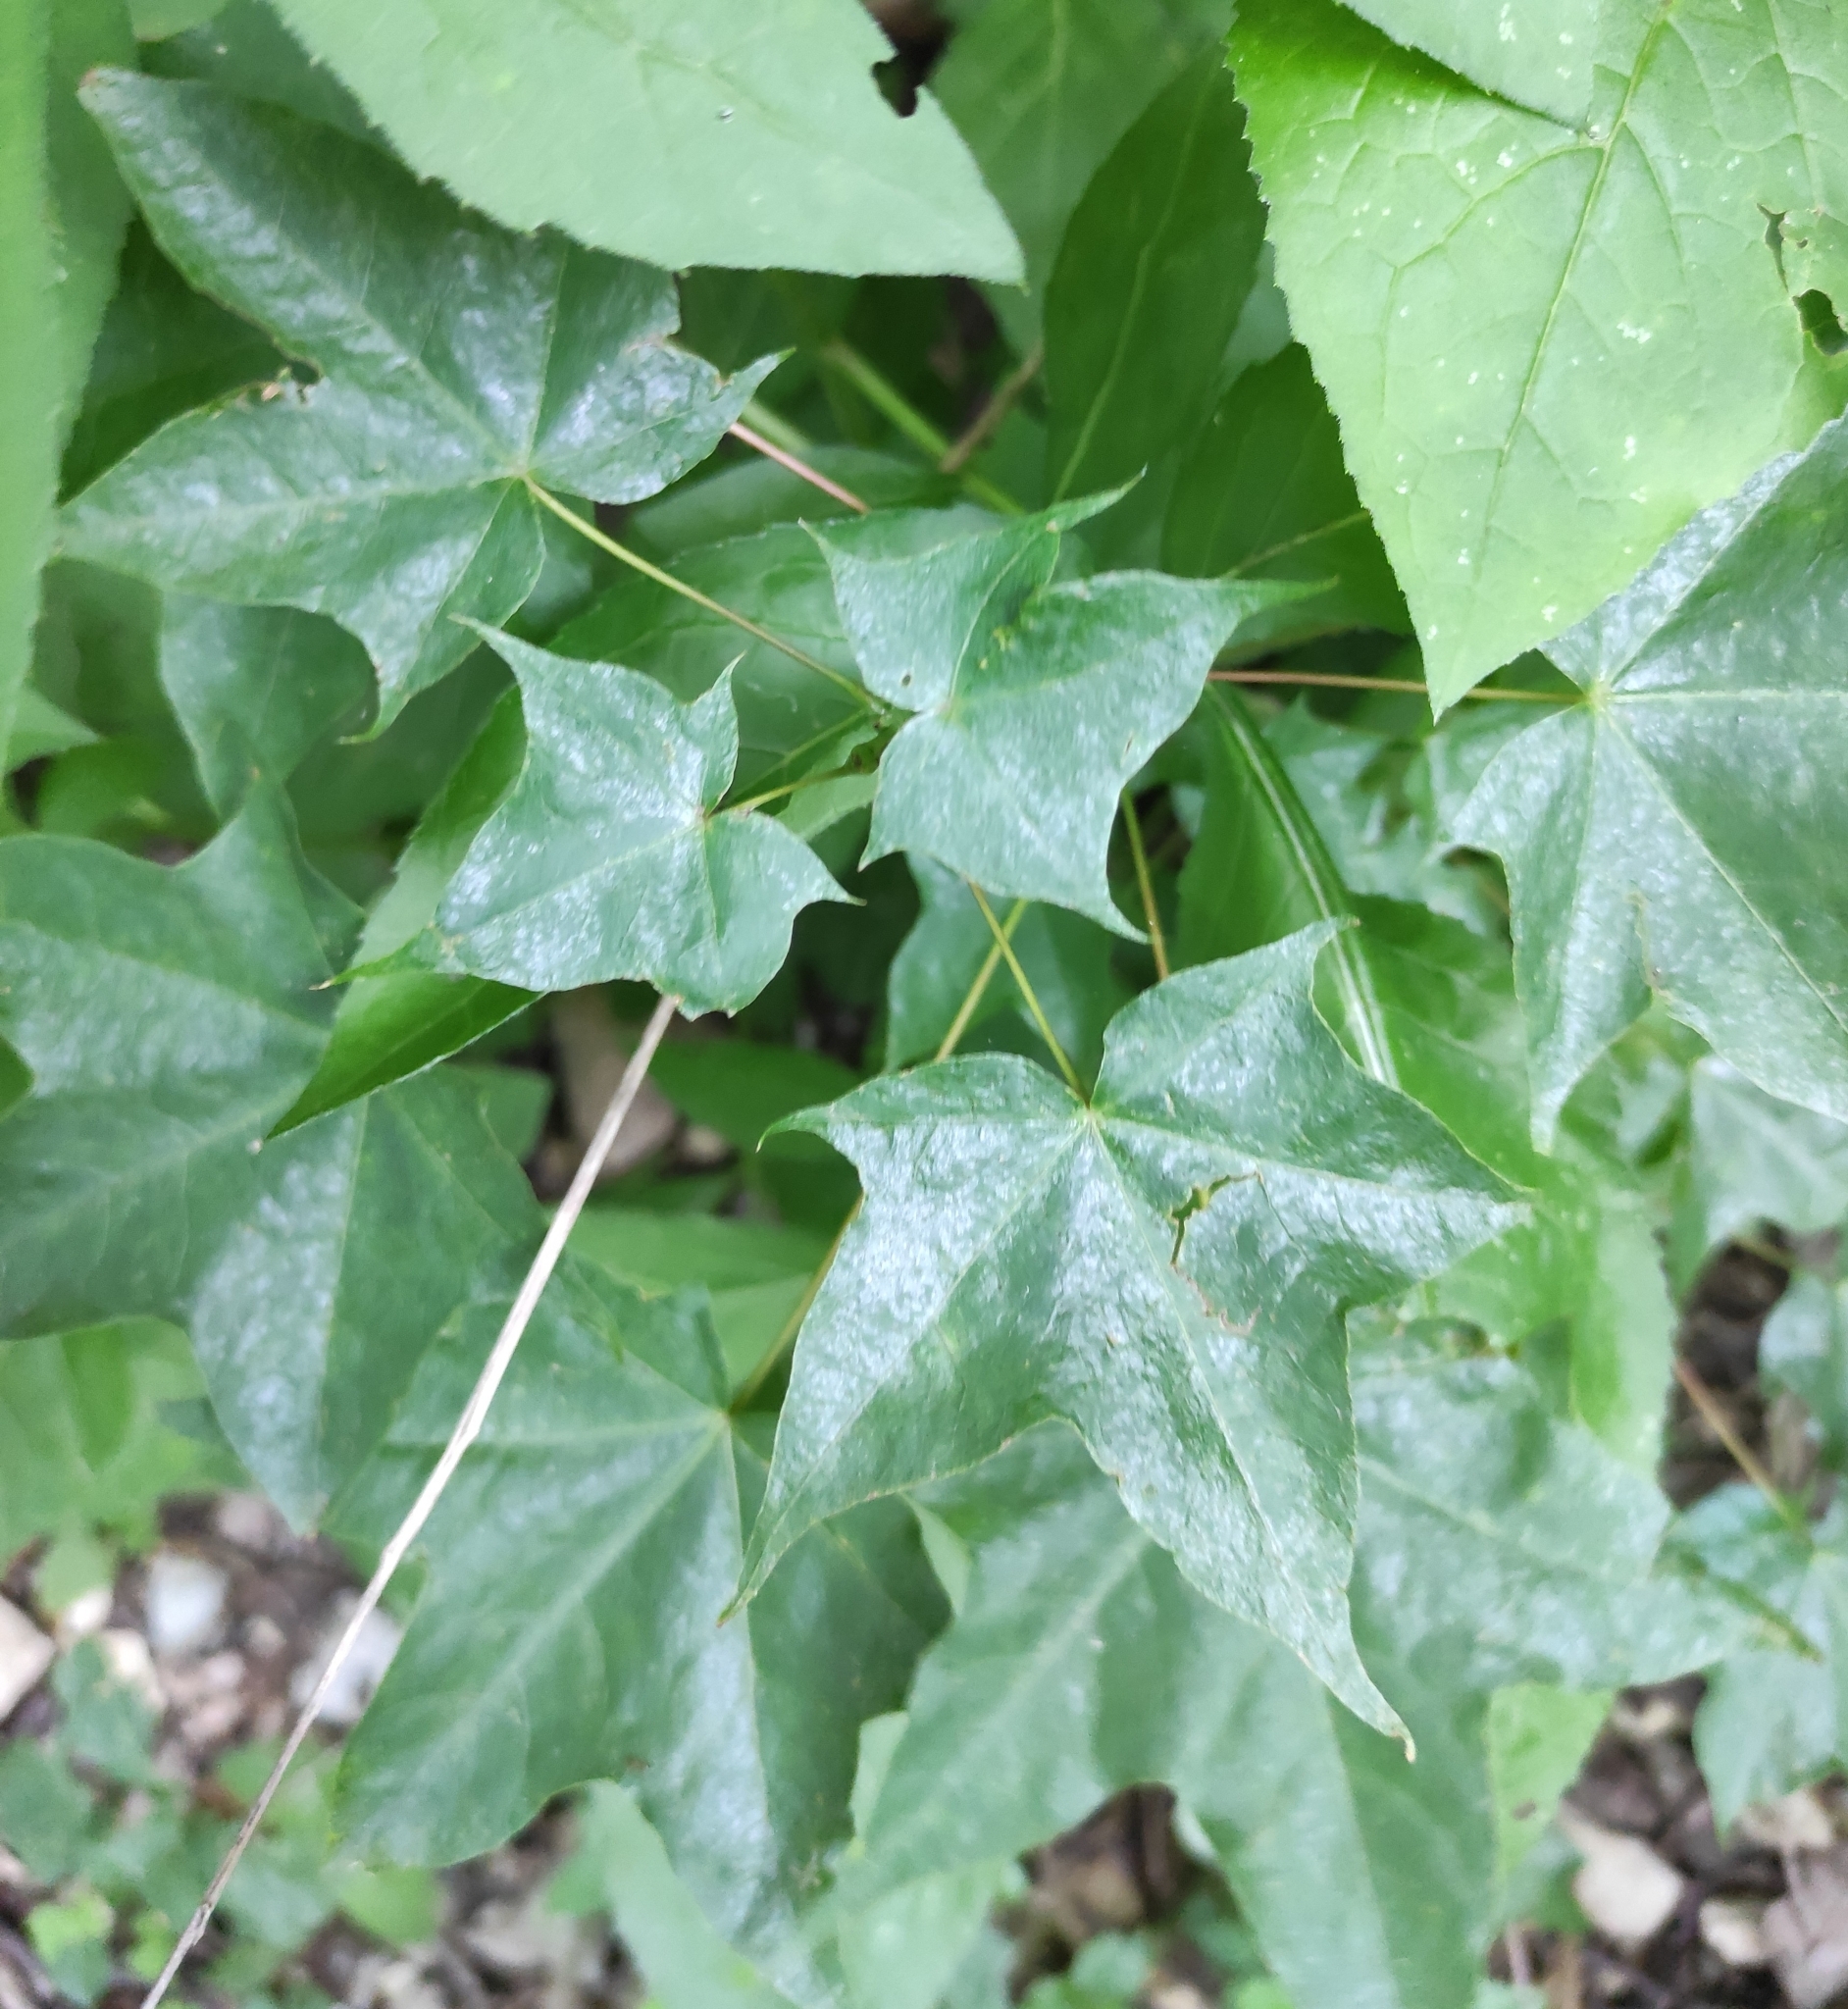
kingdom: Plantae
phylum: Tracheophyta
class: Magnoliopsida
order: Sapindales
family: Sapindaceae
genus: Acer
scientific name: Acer cappadocicum
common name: Cappadocian maple
